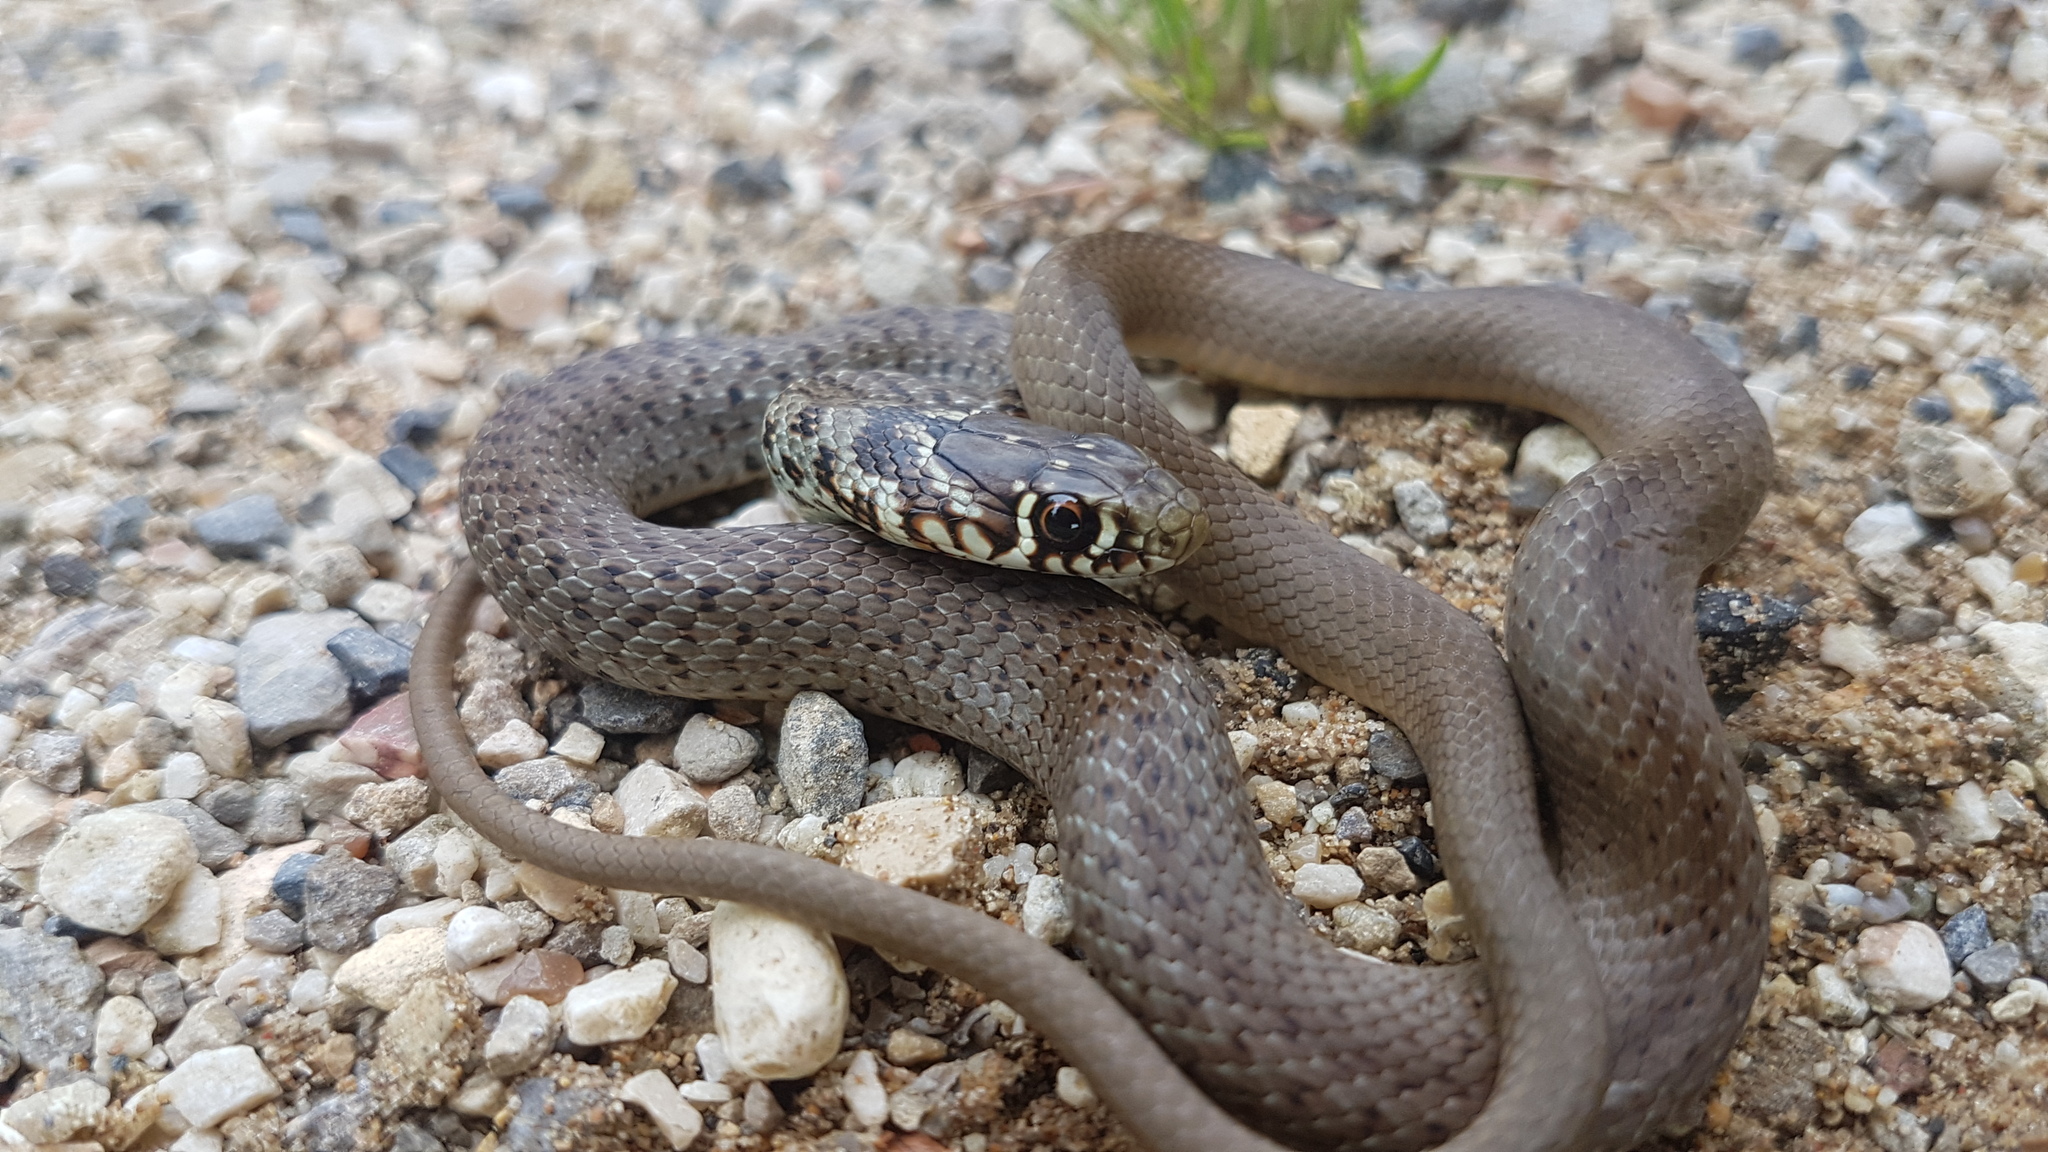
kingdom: Animalia
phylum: Chordata
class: Squamata
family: Colubridae
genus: Hierophis
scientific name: Hierophis gemonensis
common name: Balkan whip snake
